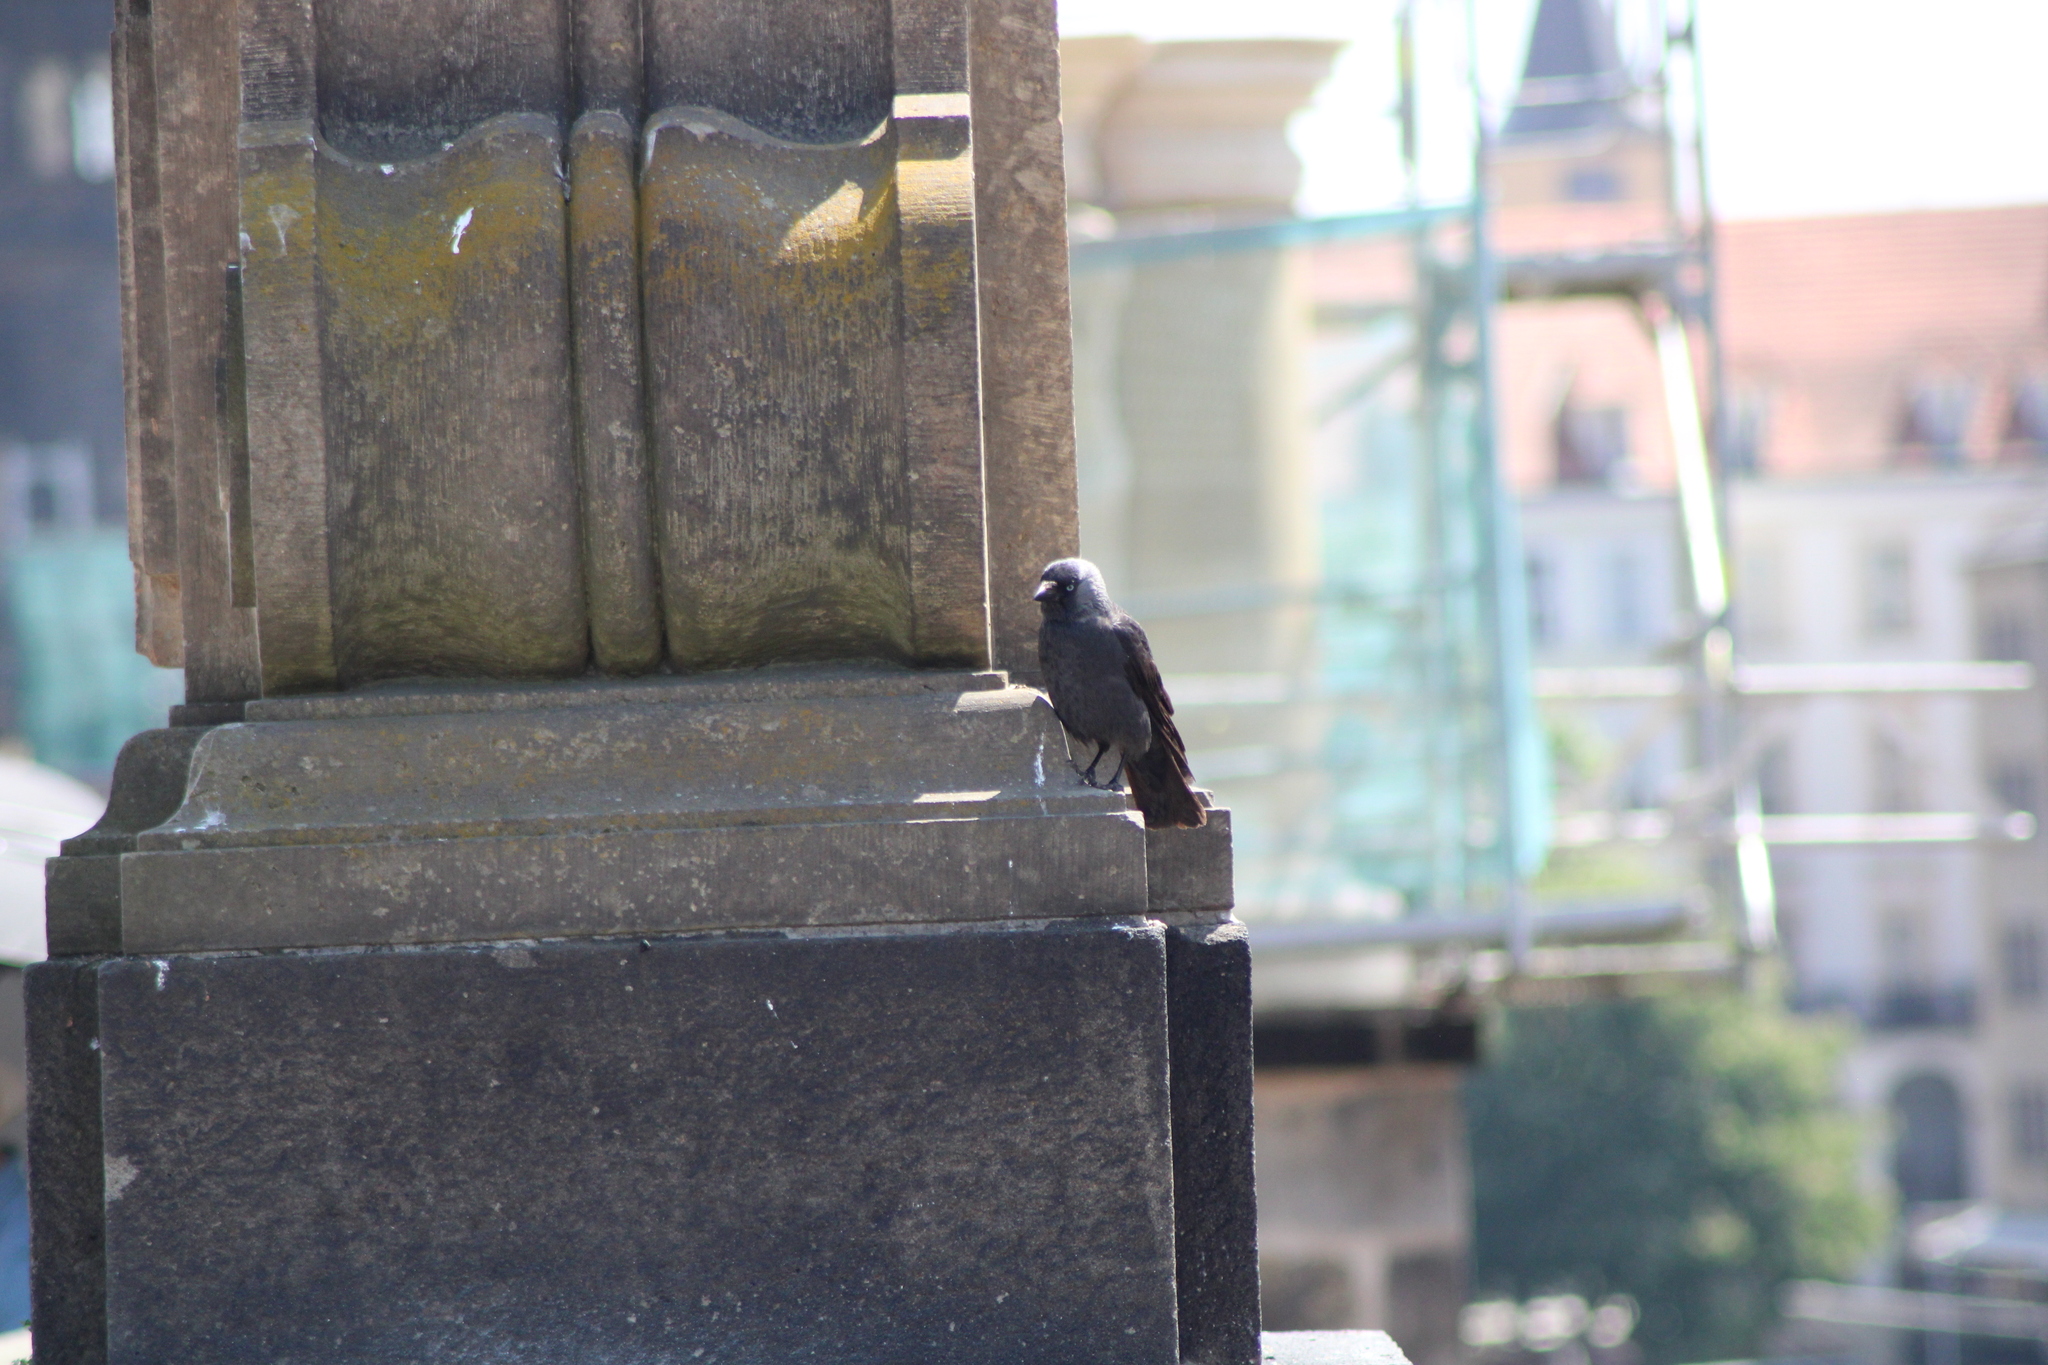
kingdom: Animalia
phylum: Chordata
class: Aves
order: Passeriformes
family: Corvidae
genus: Coloeus
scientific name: Coloeus monedula
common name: Western jackdaw
